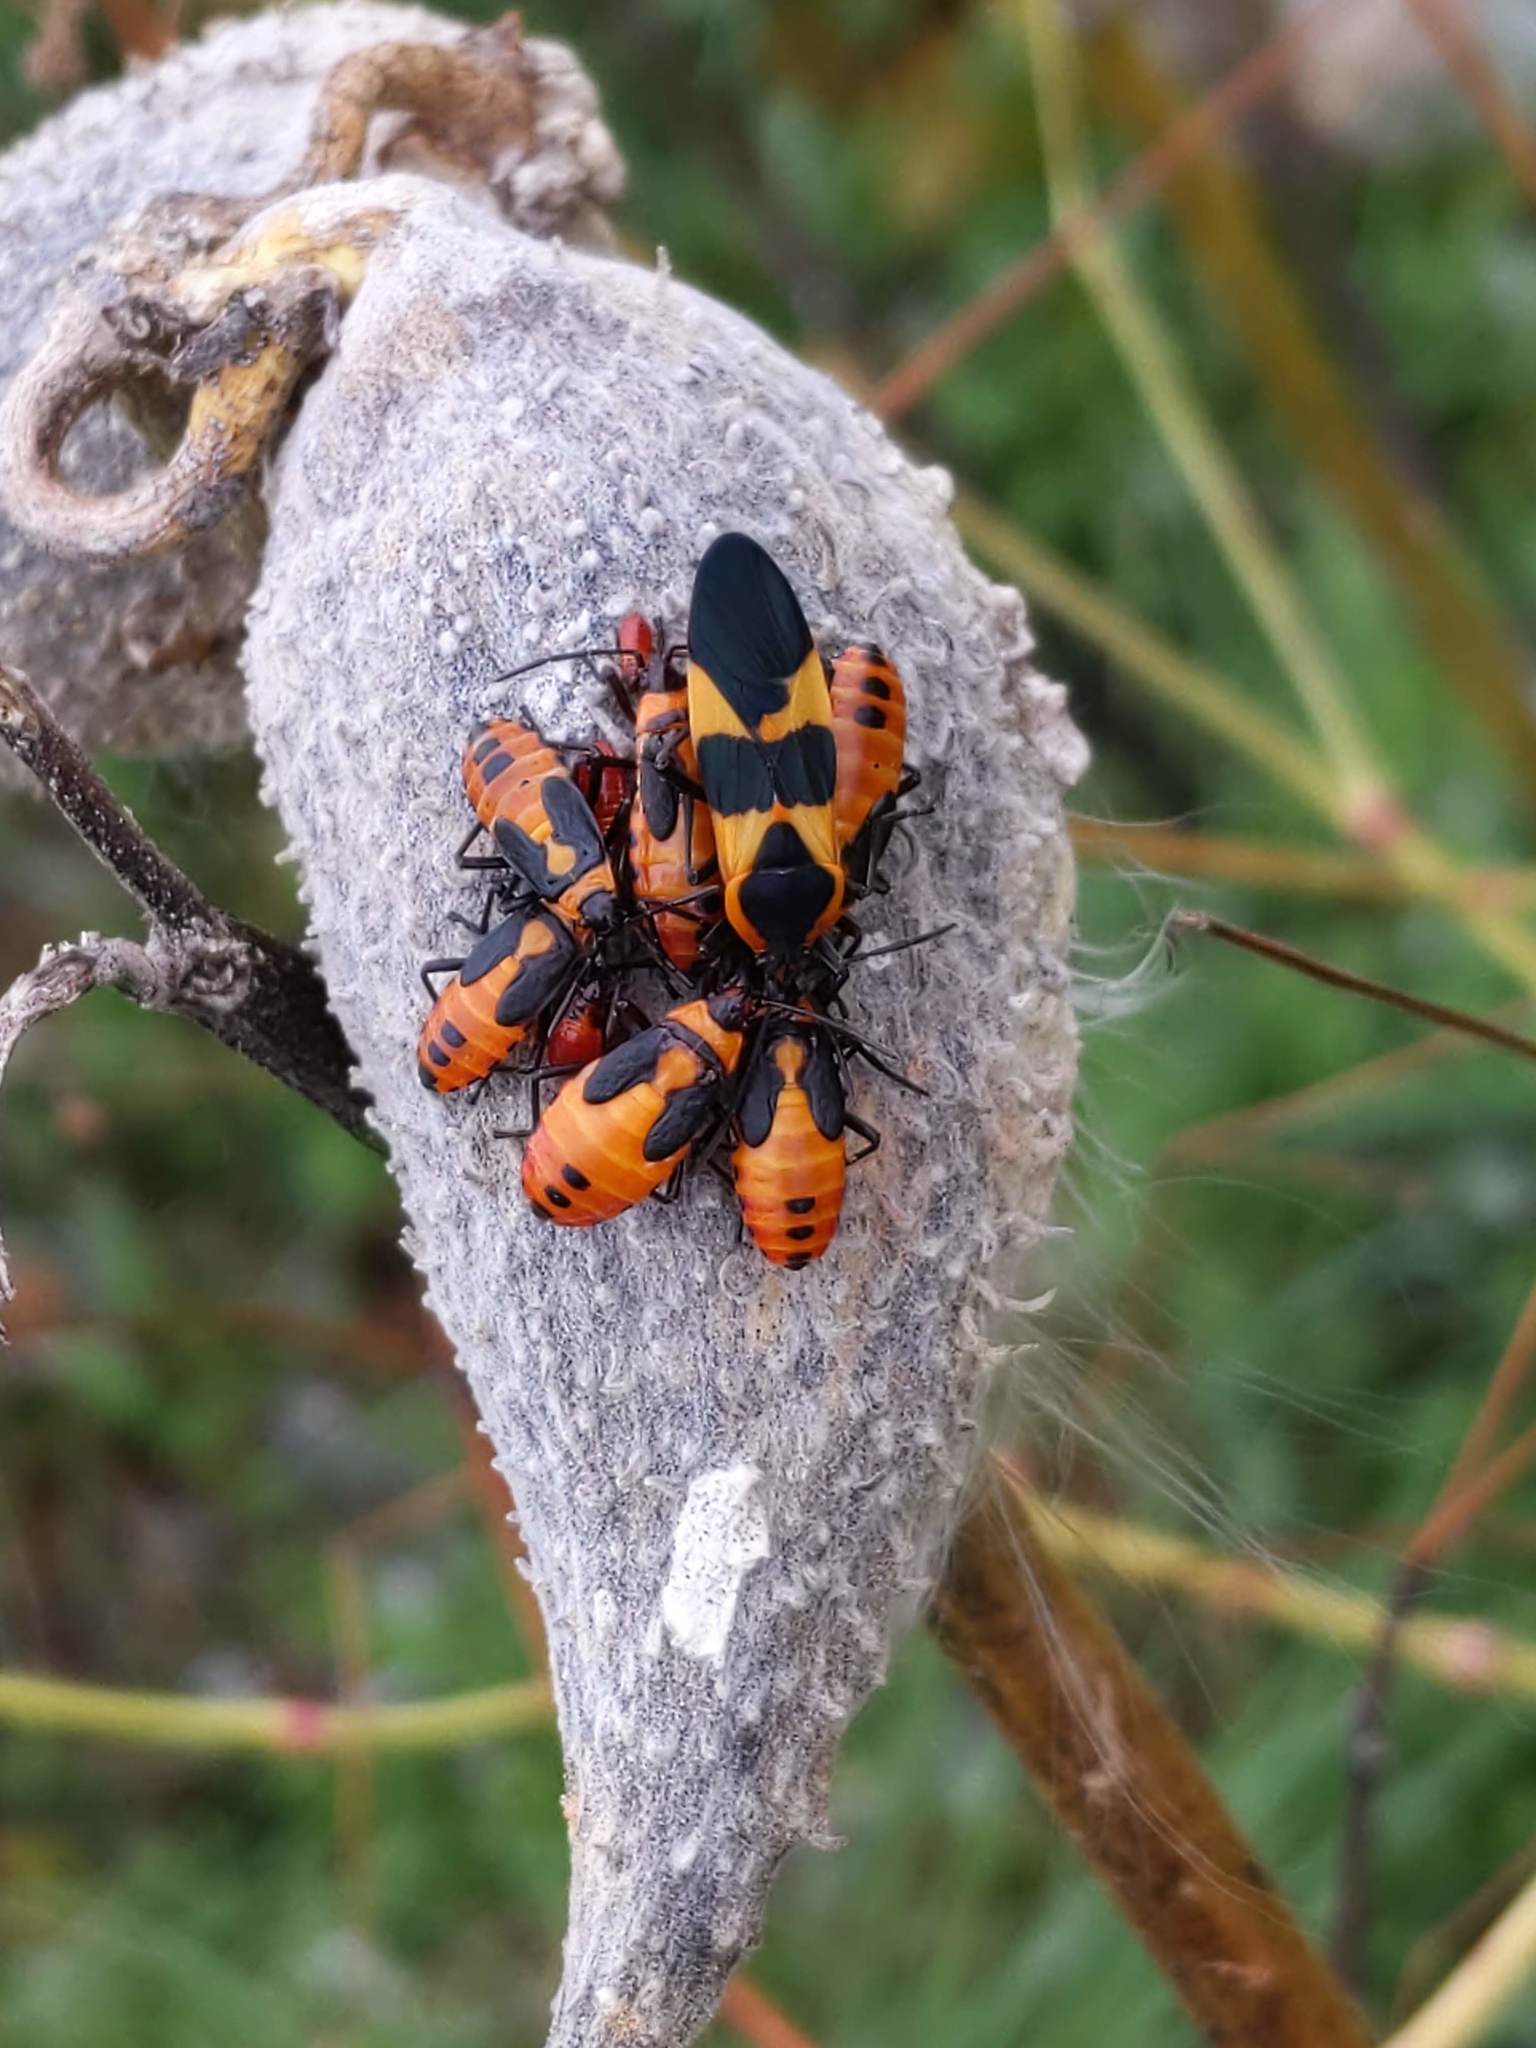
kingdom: Animalia
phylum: Arthropoda
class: Insecta
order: Hemiptera
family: Lygaeidae
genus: Oncopeltus
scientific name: Oncopeltus fasciatus
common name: Large milkweed bug
